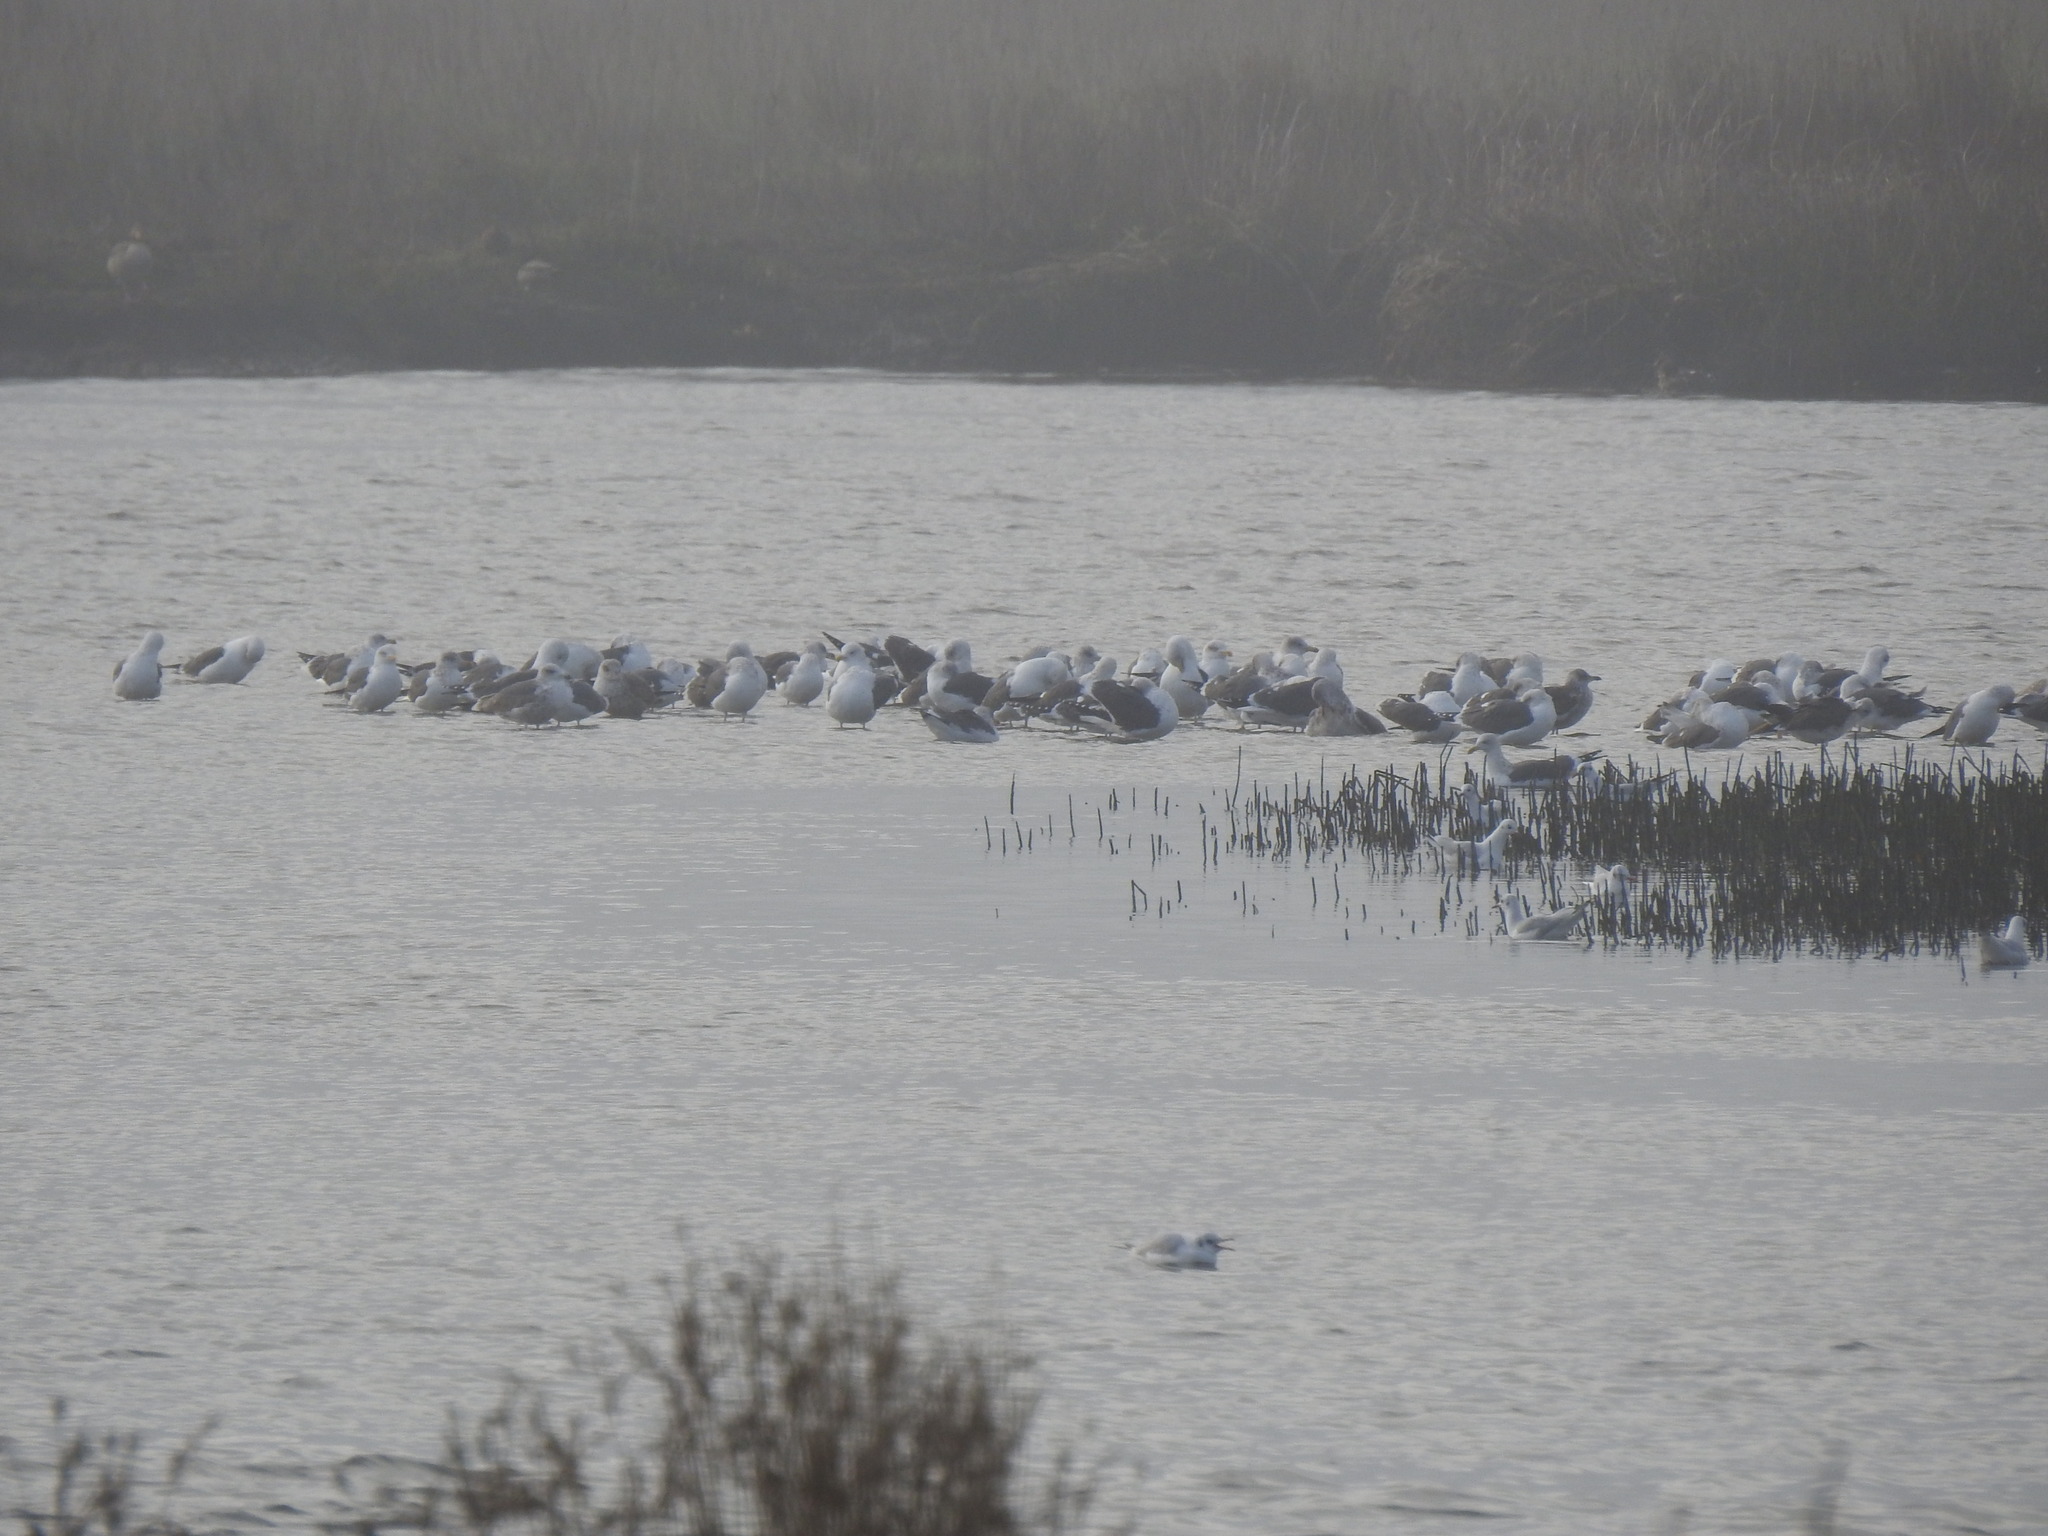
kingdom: Animalia
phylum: Chordata
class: Aves
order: Charadriiformes
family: Laridae
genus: Larus
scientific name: Larus fuscus
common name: Lesser black-backed gull
